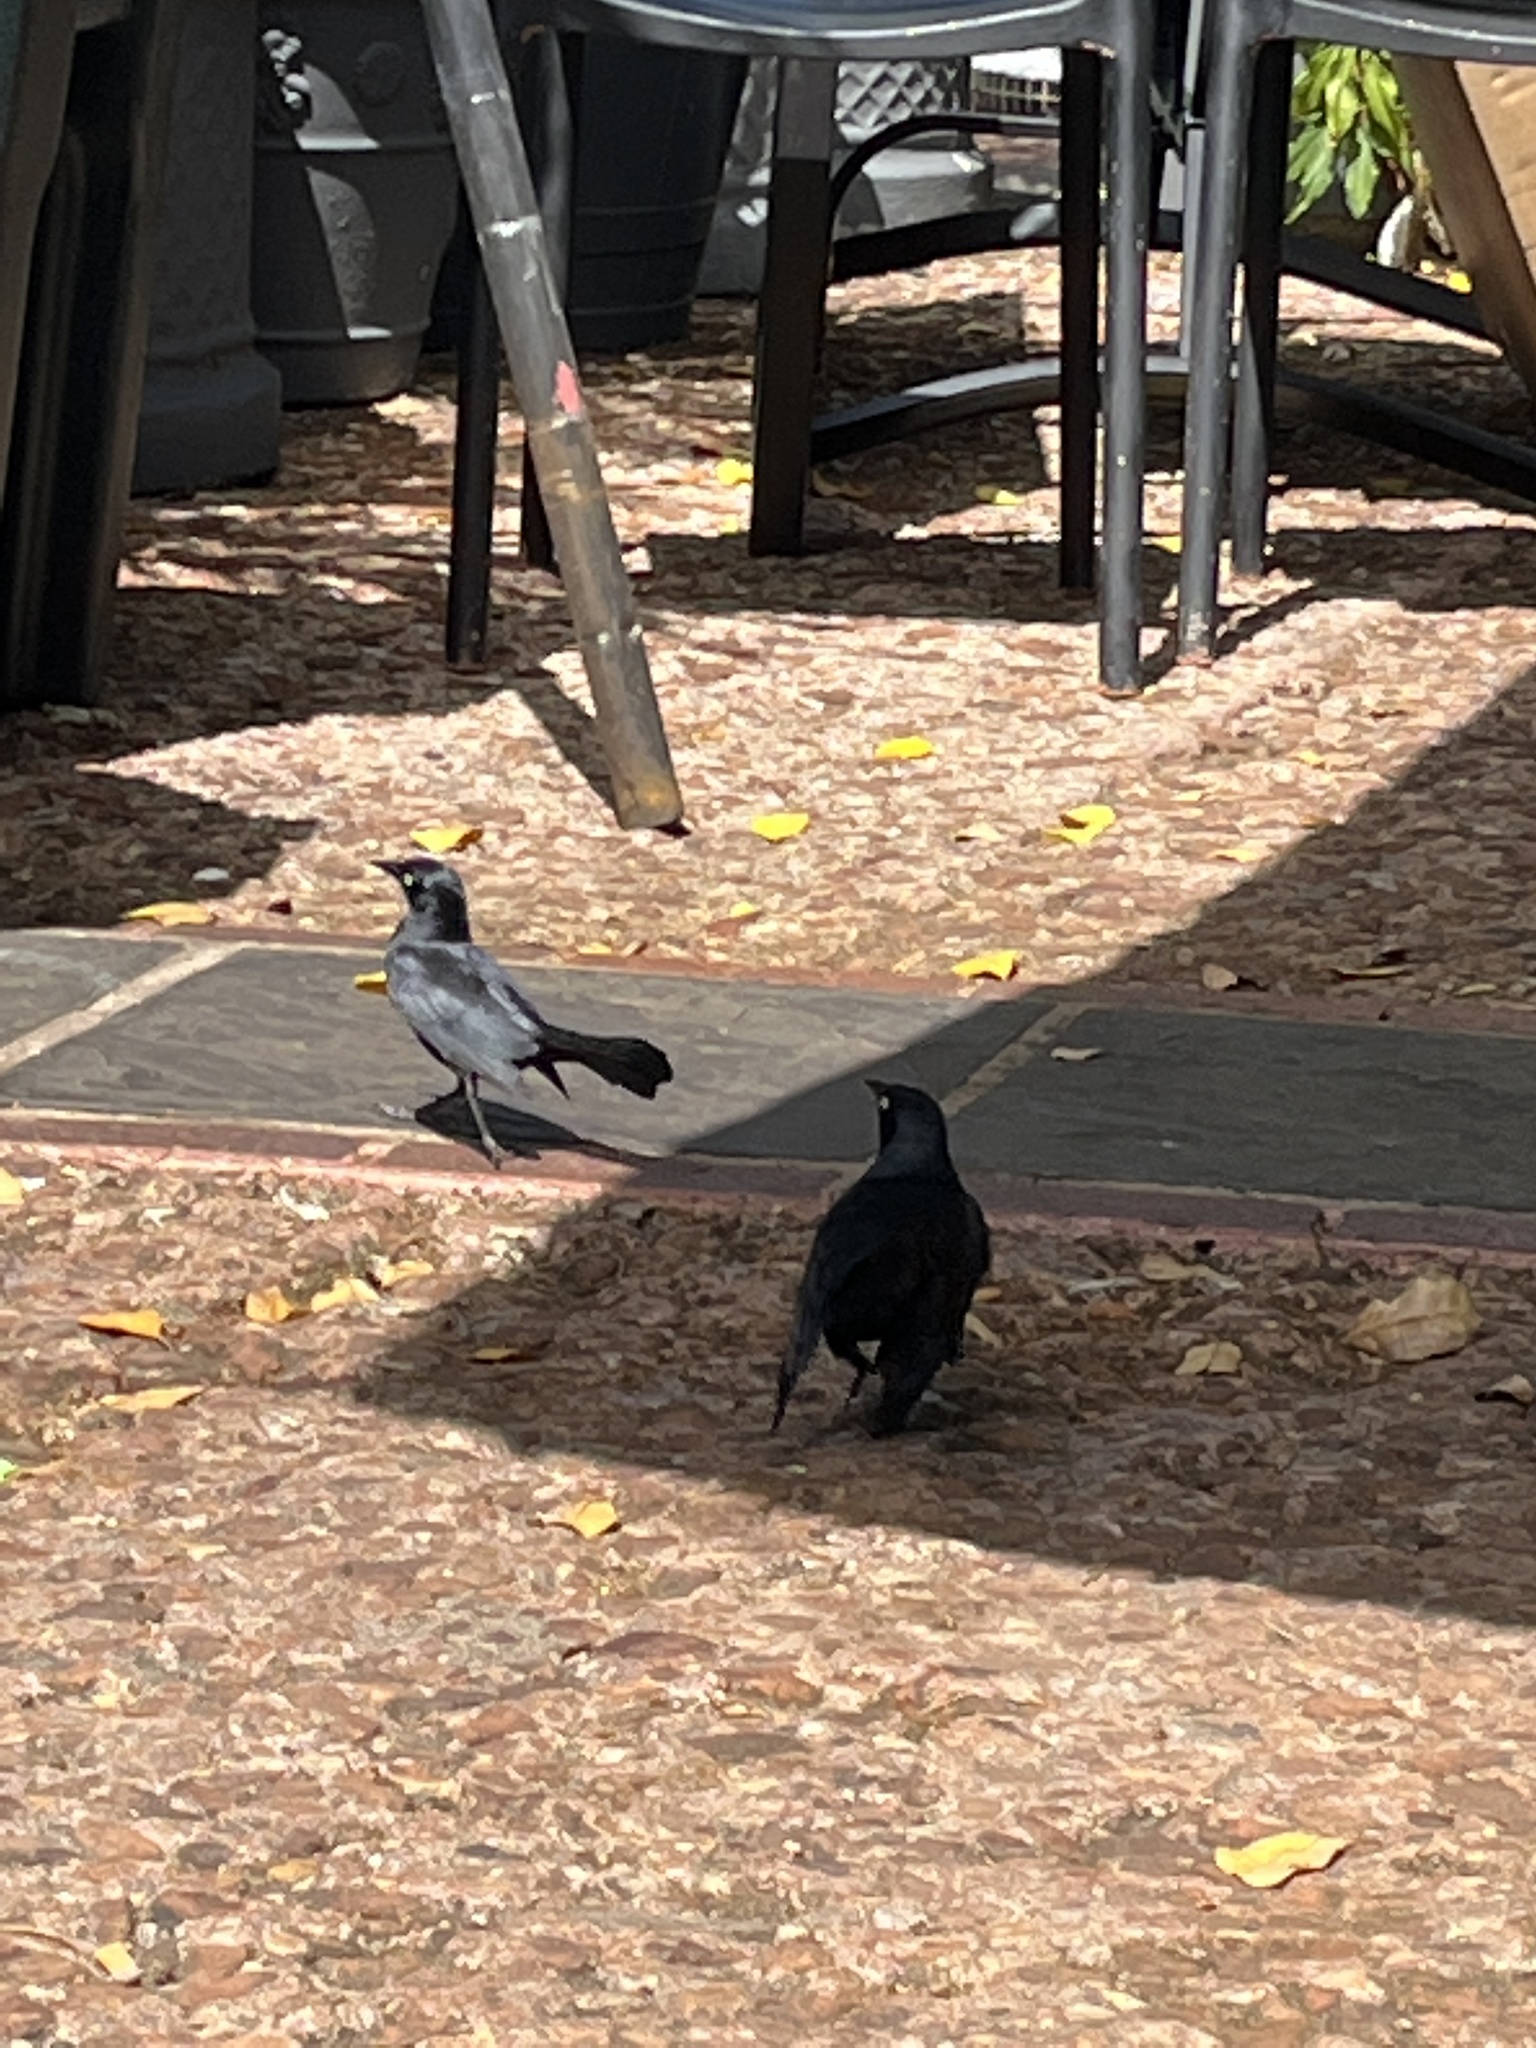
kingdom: Animalia
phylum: Chordata
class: Aves
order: Passeriformes
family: Icteridae
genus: Quiscalus
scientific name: Quiscalus niger
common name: Greater antillean grackle
